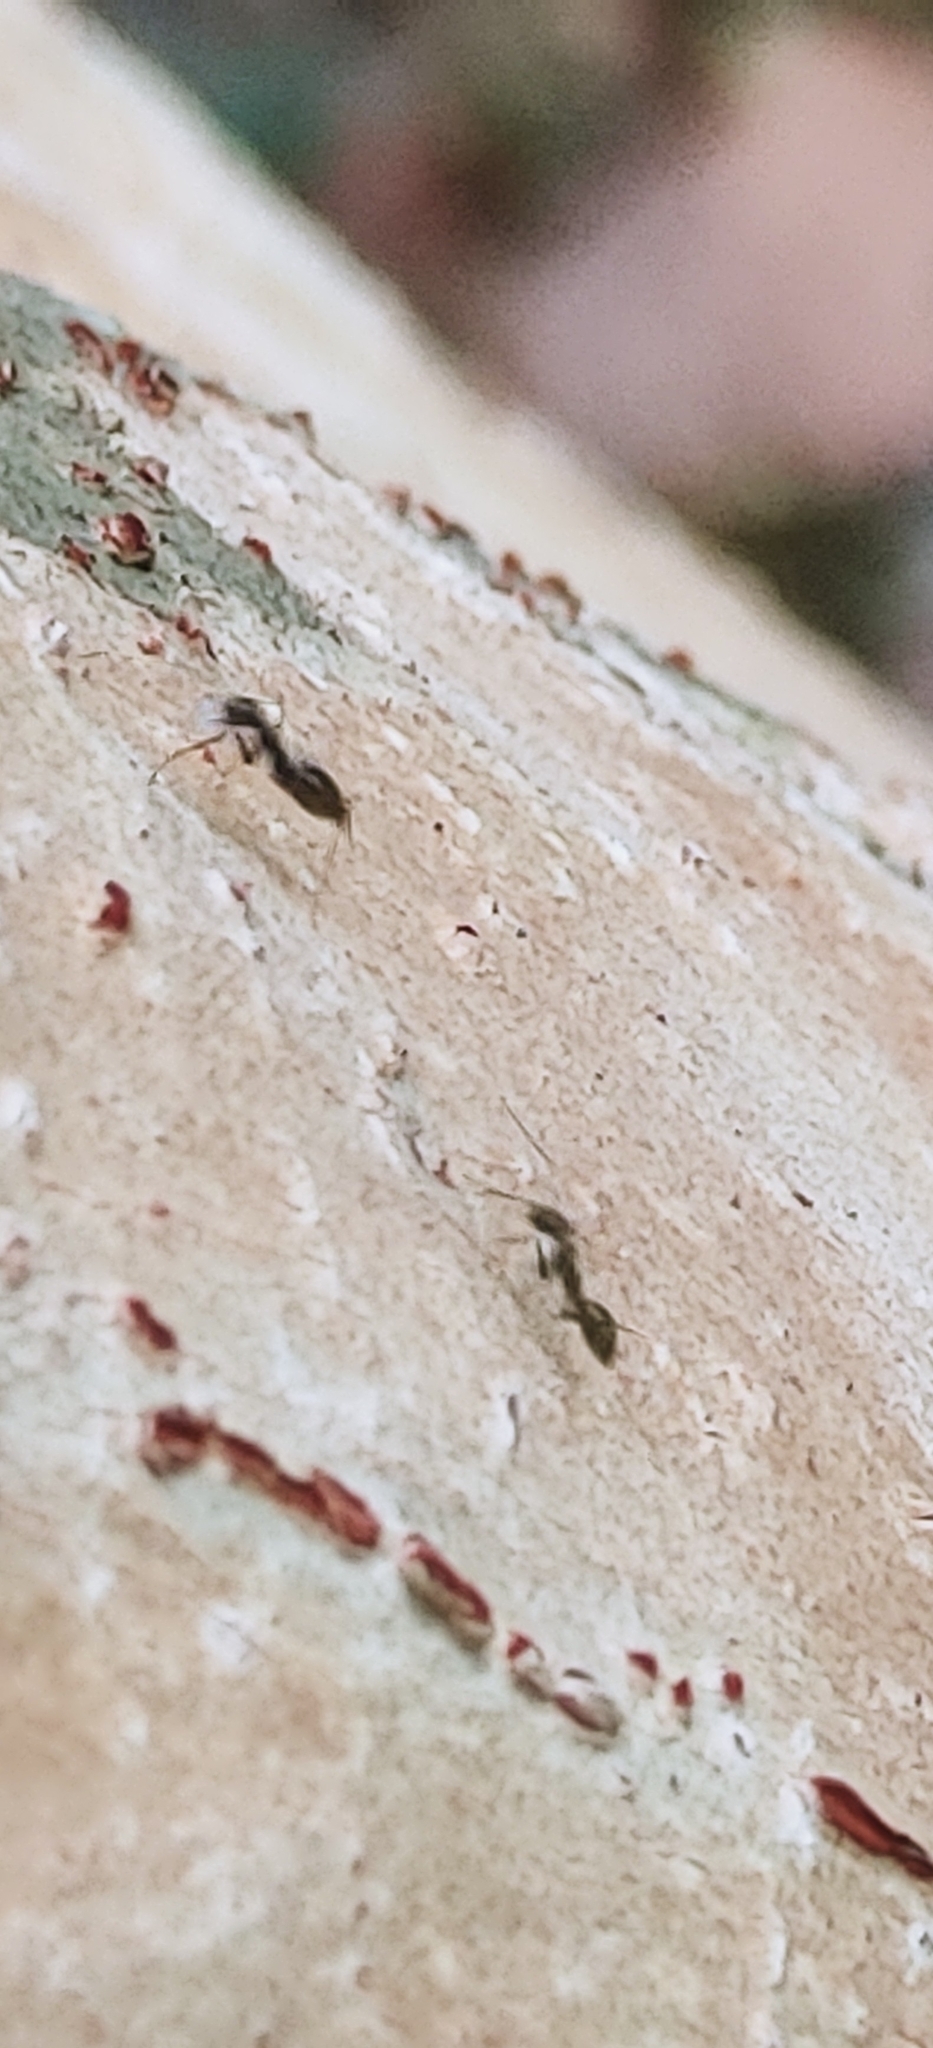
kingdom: Animalia
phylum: Arthropoda
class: Insecta
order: Hymenoptera
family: Formicidae
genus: Paratrechina
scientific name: Paratrechina longicornis
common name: Longhorned crazy ant
